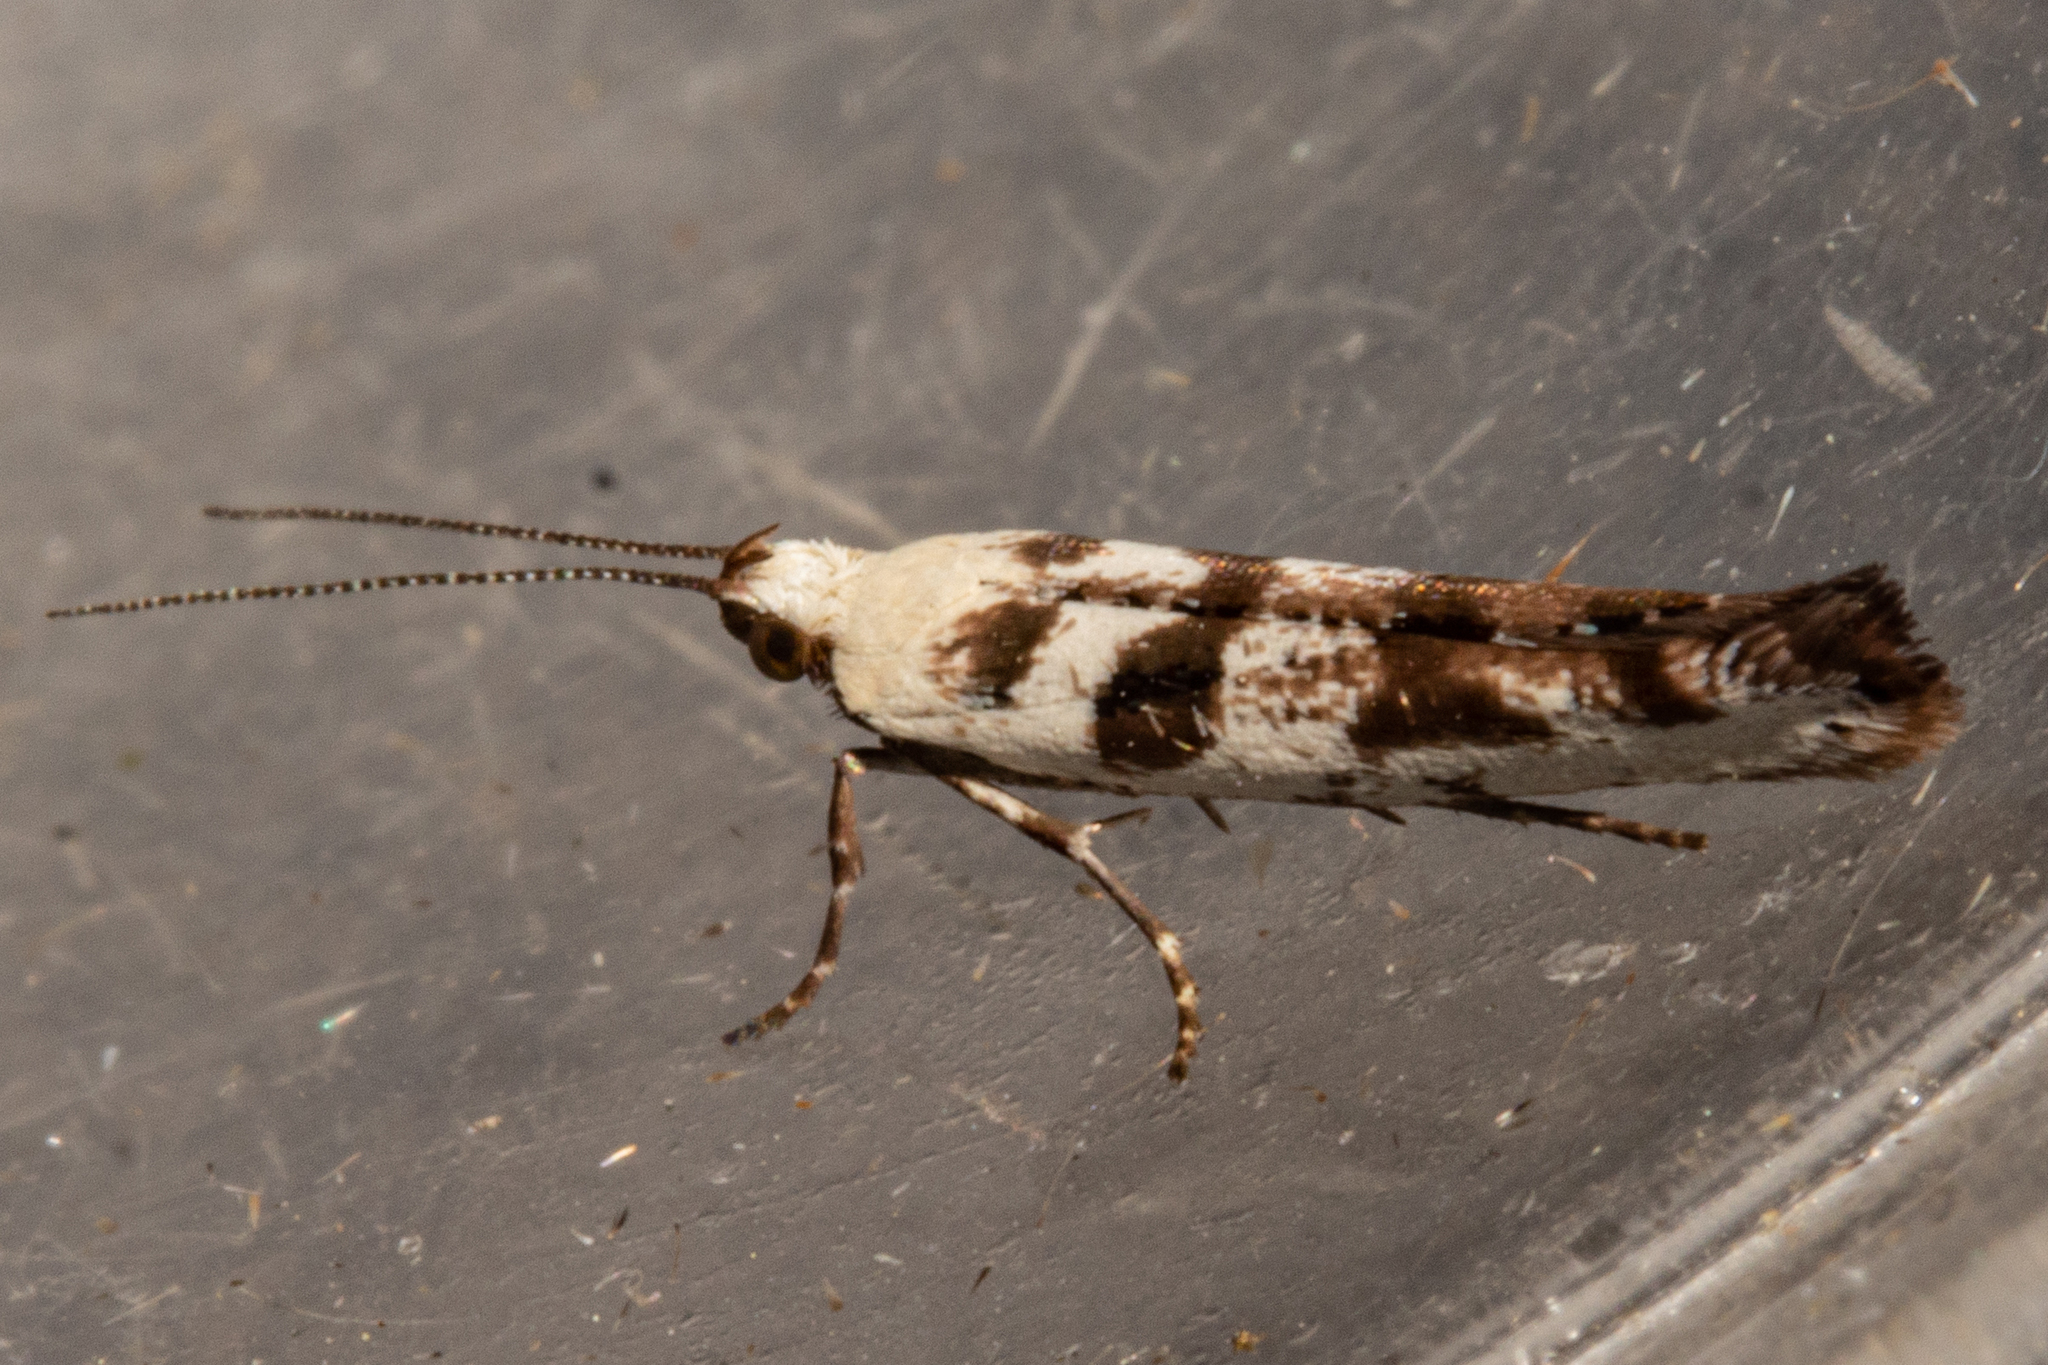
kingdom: Animalia
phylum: Arthropoda
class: Insecta
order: Lepidoptera
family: Glyphipterigidae
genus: Chrysorthenches
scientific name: Chrysorthenches porphyritis
